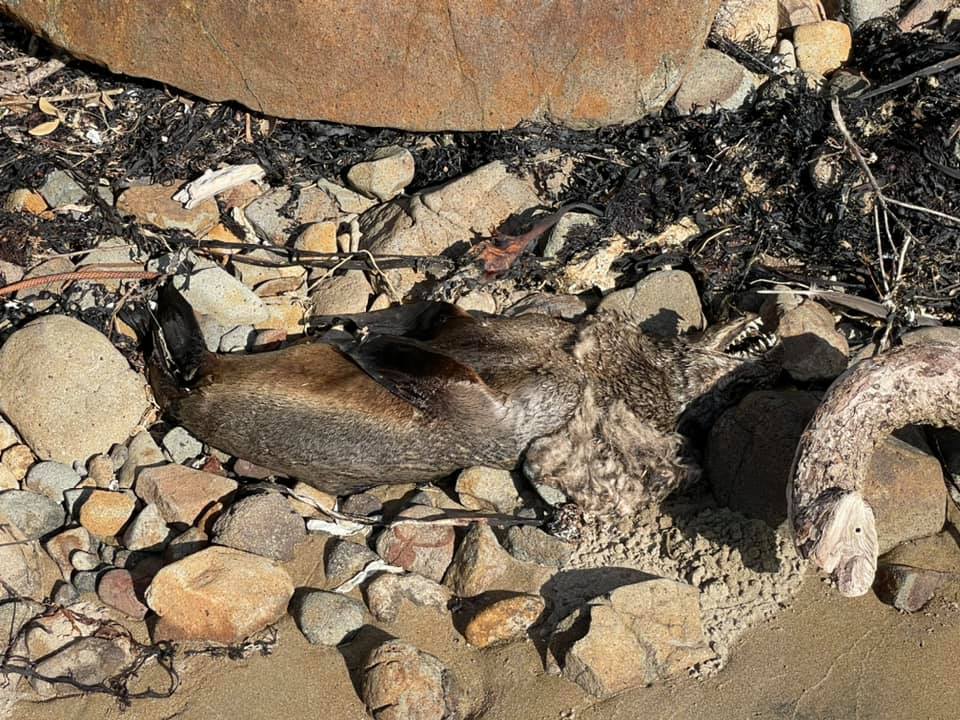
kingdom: Animalia
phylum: Chordata
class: Mammalia
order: Carnivora
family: Otariidae
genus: Arctocephalus
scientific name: Arctocephalus forsteri
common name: New zealand fur seal
